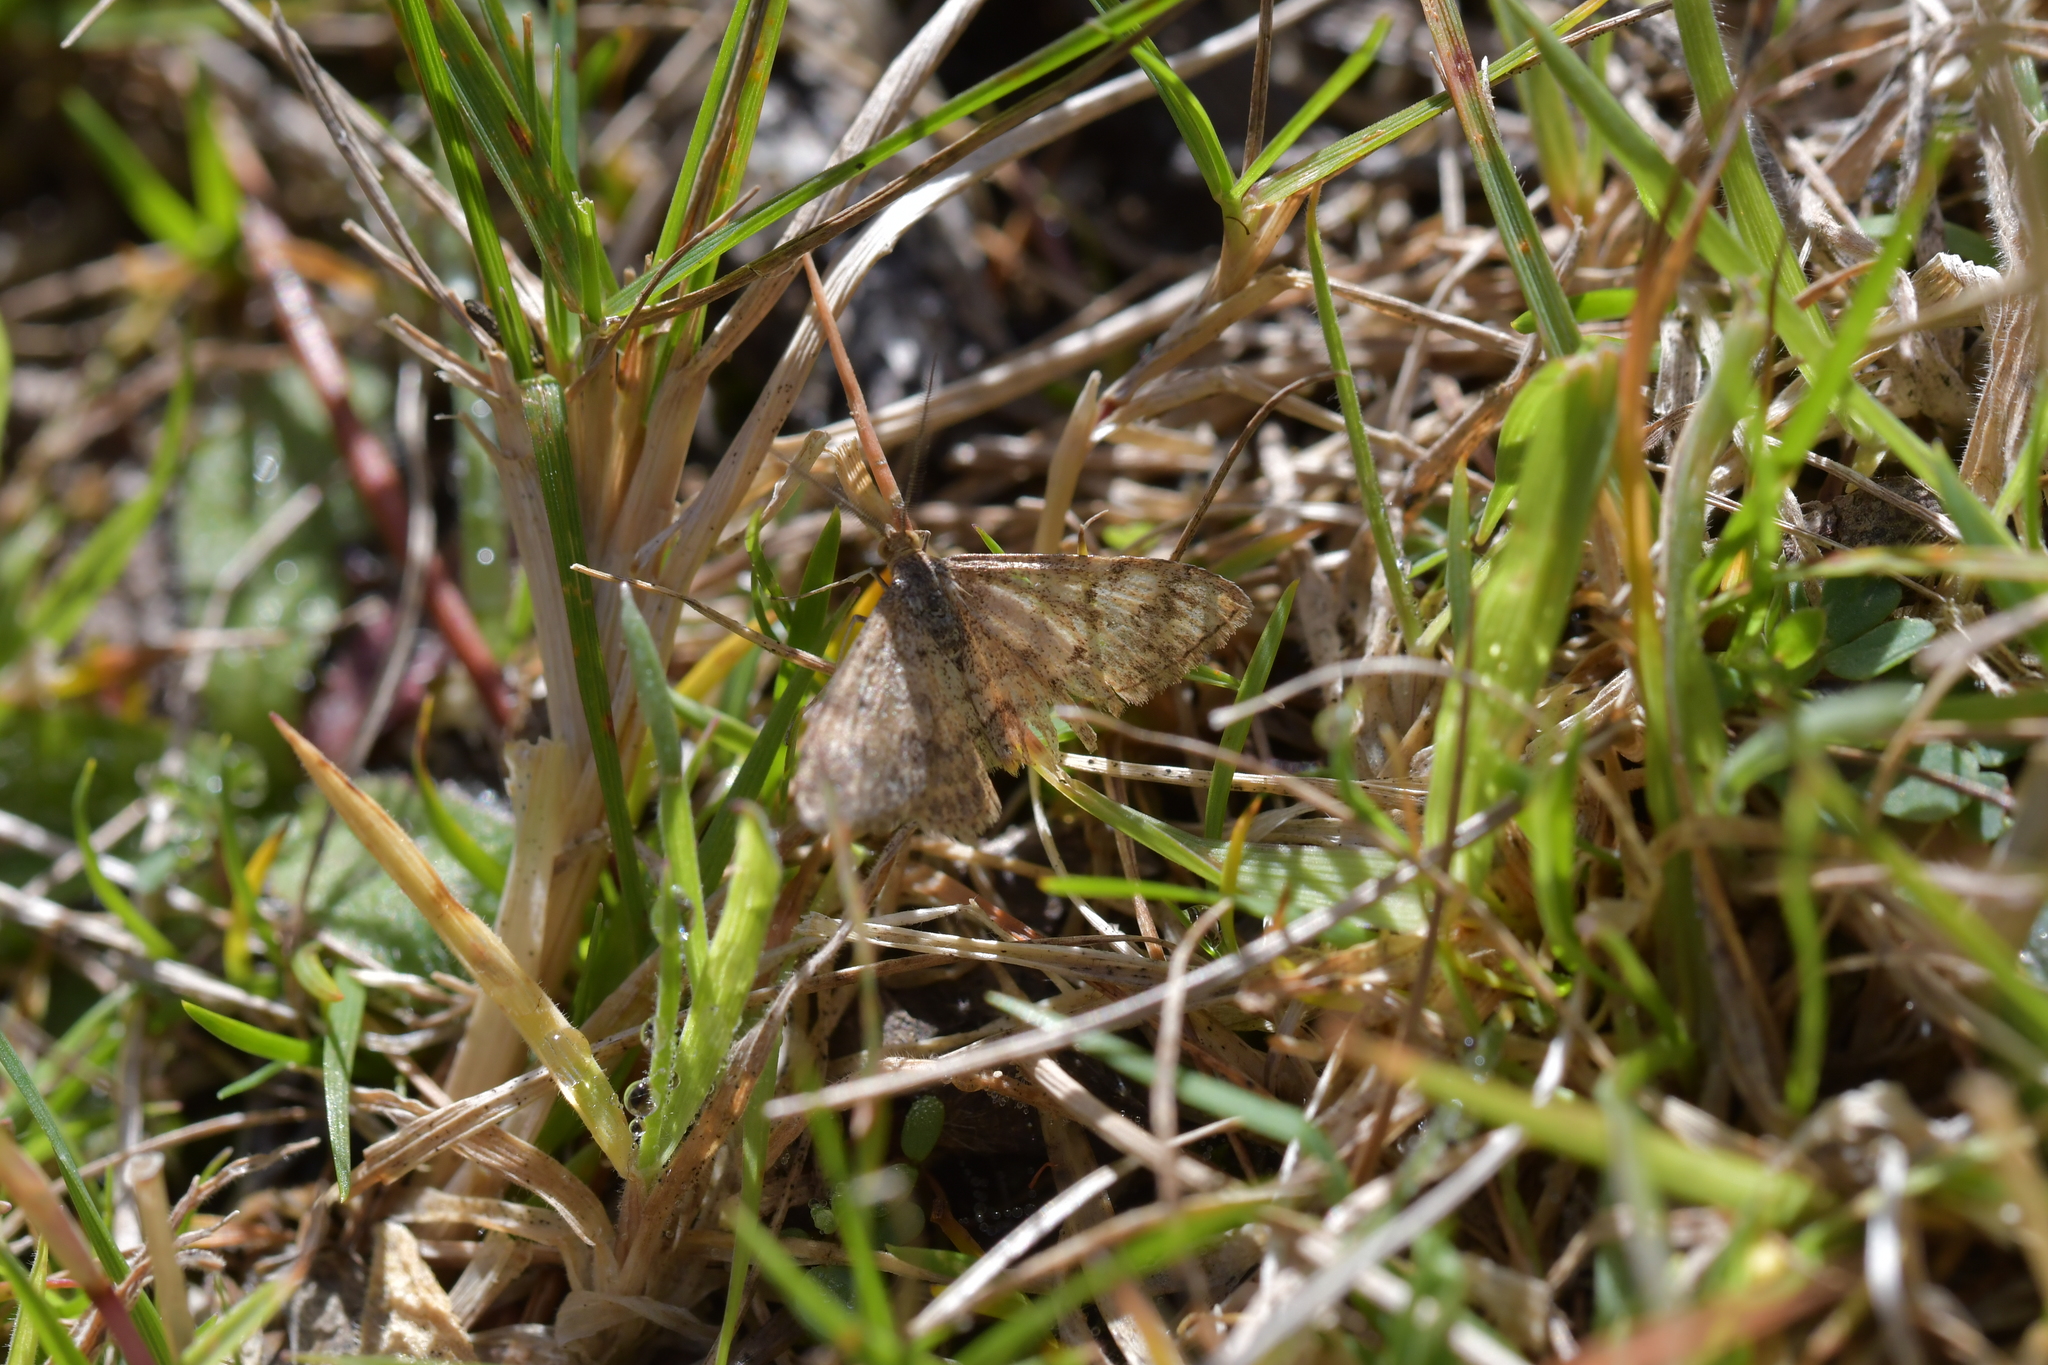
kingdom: Animalia
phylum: Arthropoda
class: Insecta
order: Lepidoptera
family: Geometridae
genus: Scopula
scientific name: Scopula rubraria
